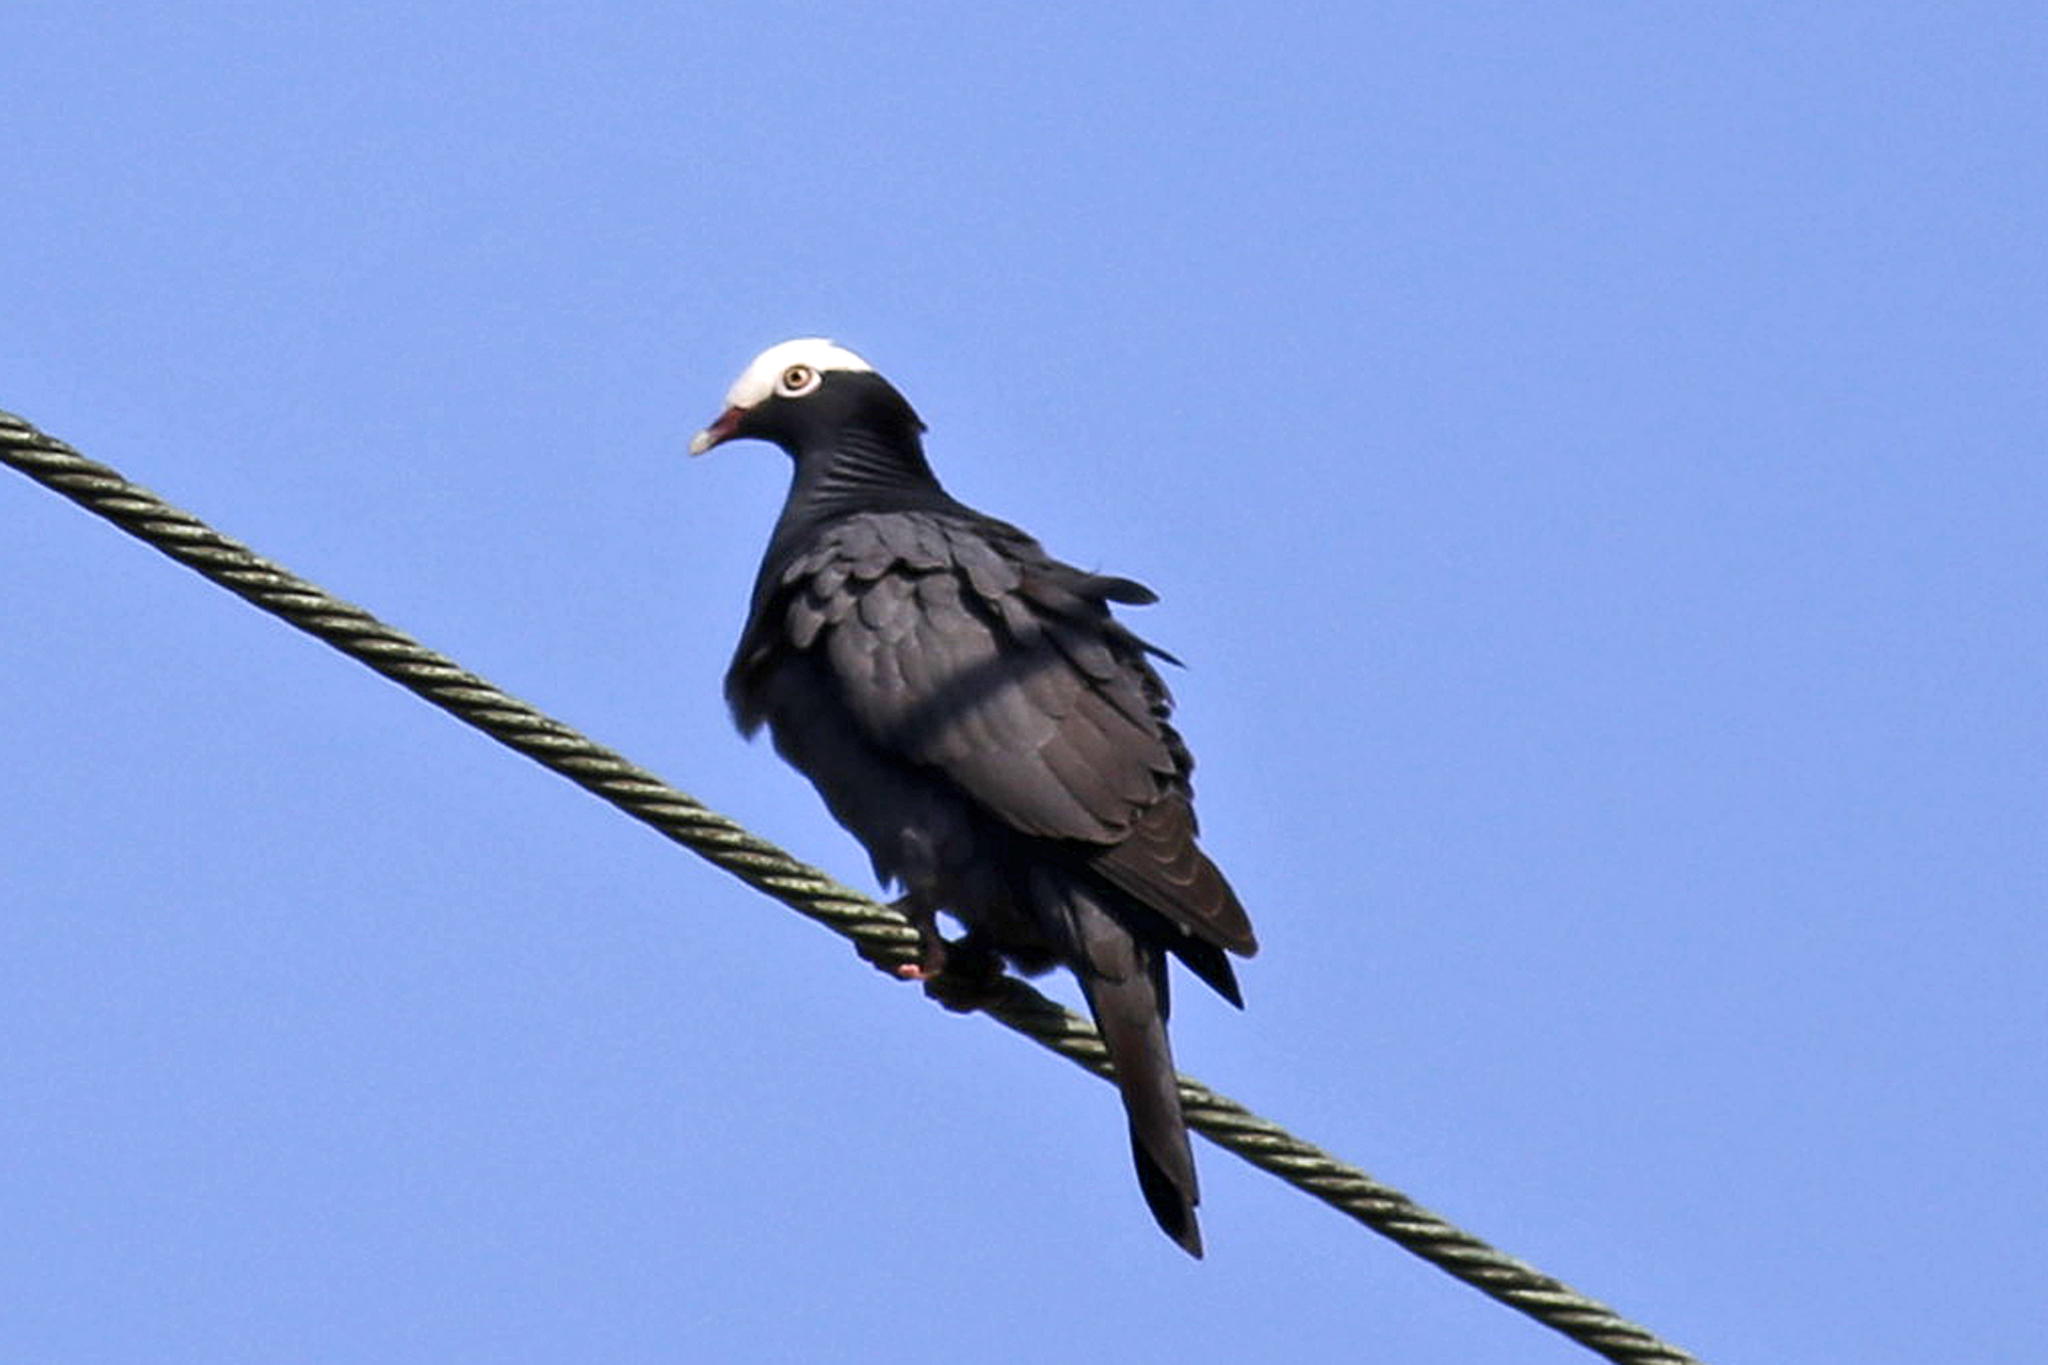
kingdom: Animalia
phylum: Chordata
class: Aves
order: Columbiformes
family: Columbidae
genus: Patagioenas
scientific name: Patagioenas leucocephala
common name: White-crowned pigeon
